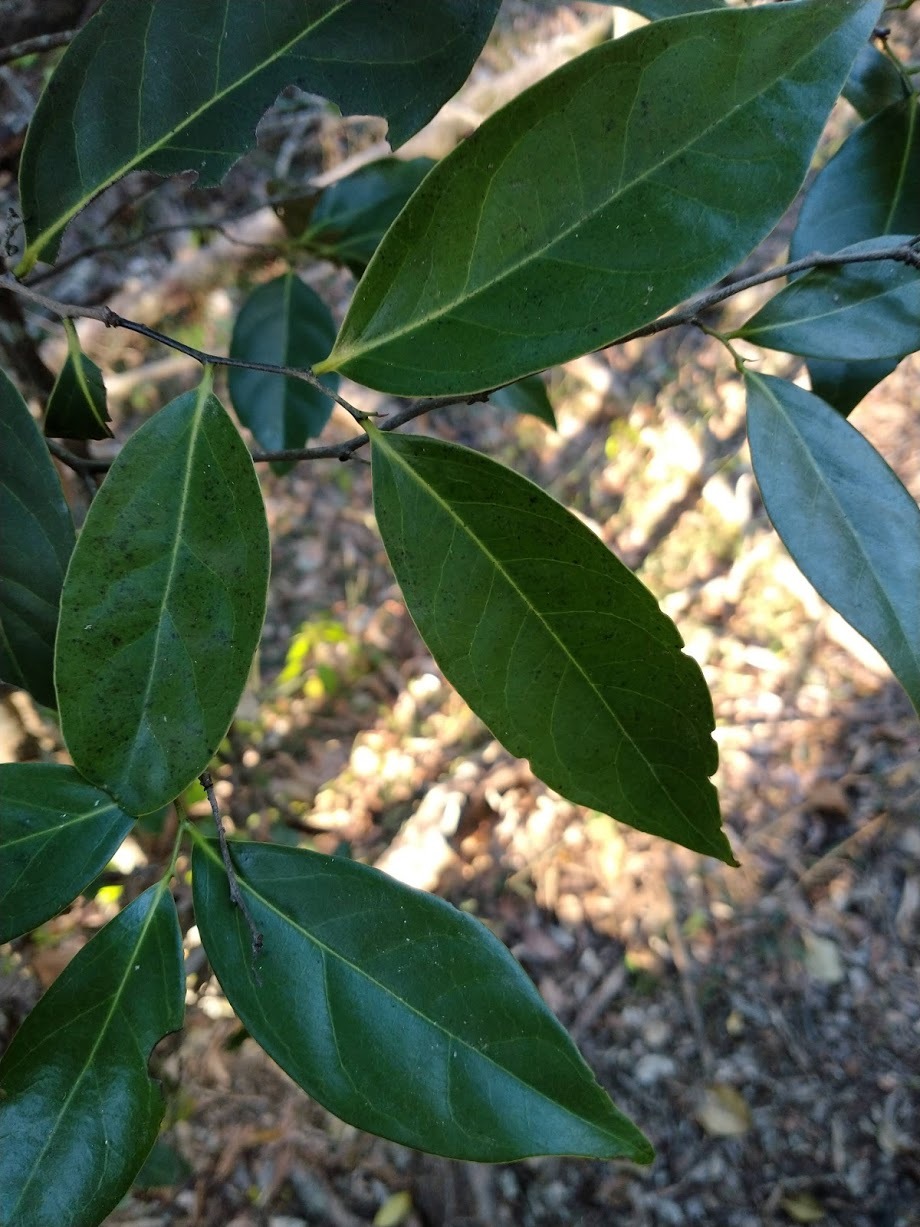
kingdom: Plantae
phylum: Tracheophyta
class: Magnoliopsida
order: Ericales
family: Ebenaceae
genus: Diospyros
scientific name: Diospyros fasciculosa
